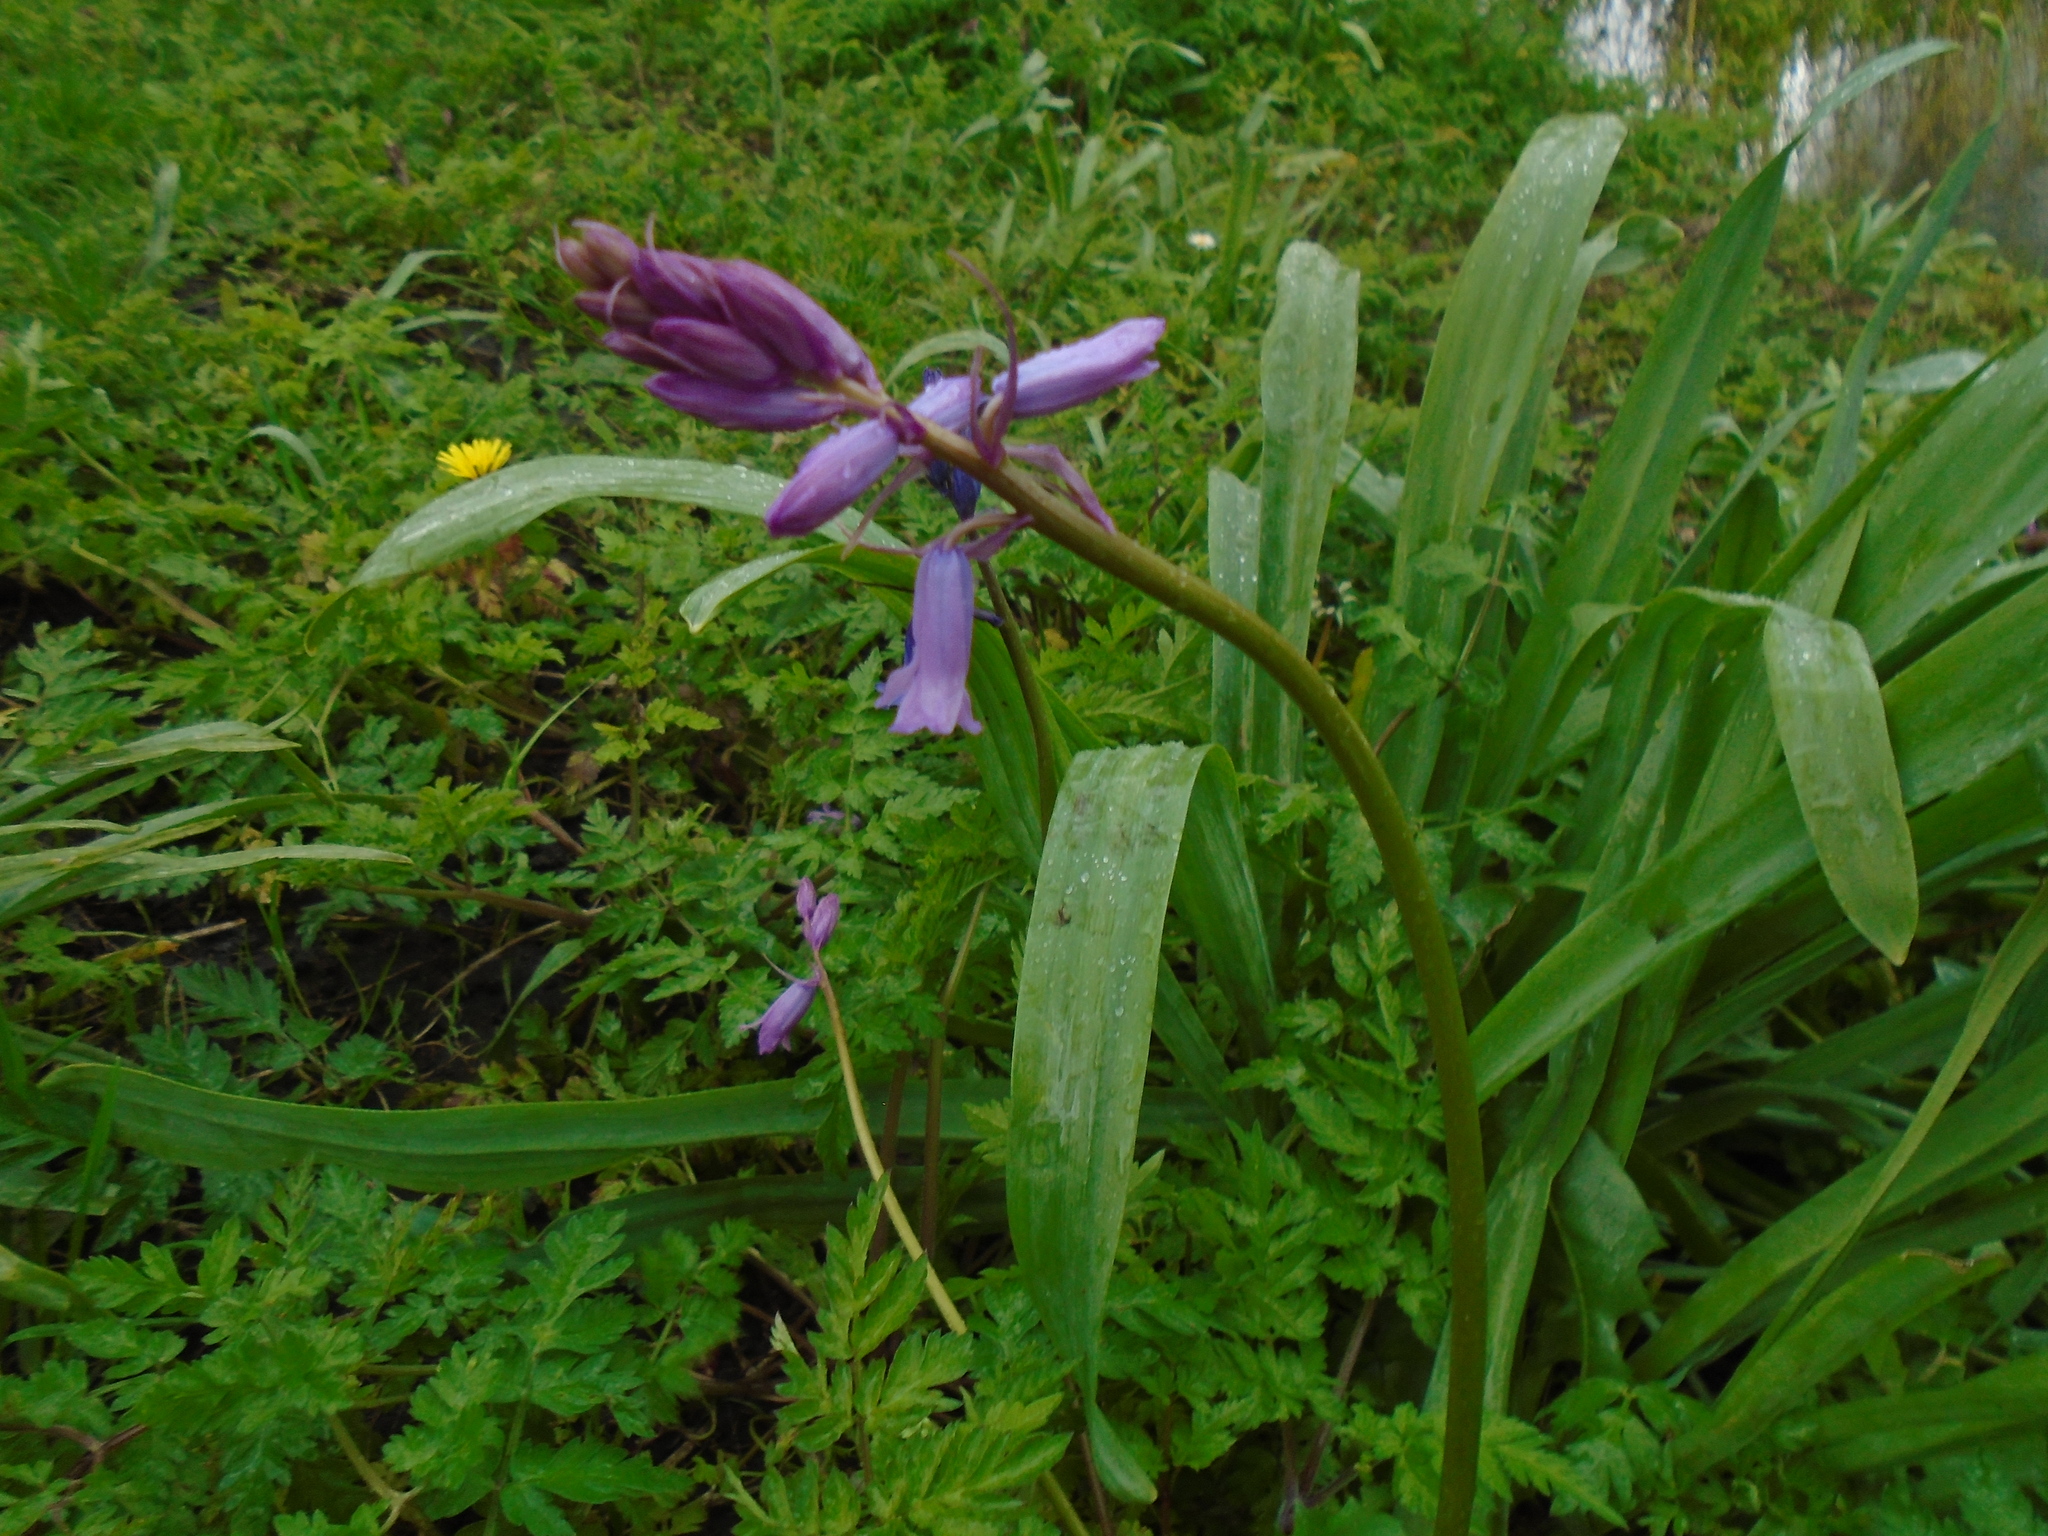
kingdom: Plantae
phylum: Tracheophyta
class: Liliopsida
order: Asparagales
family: Asparagaceae
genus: Hyacinthoides
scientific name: Hyacinthoides non-scripta
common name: Bluebell
